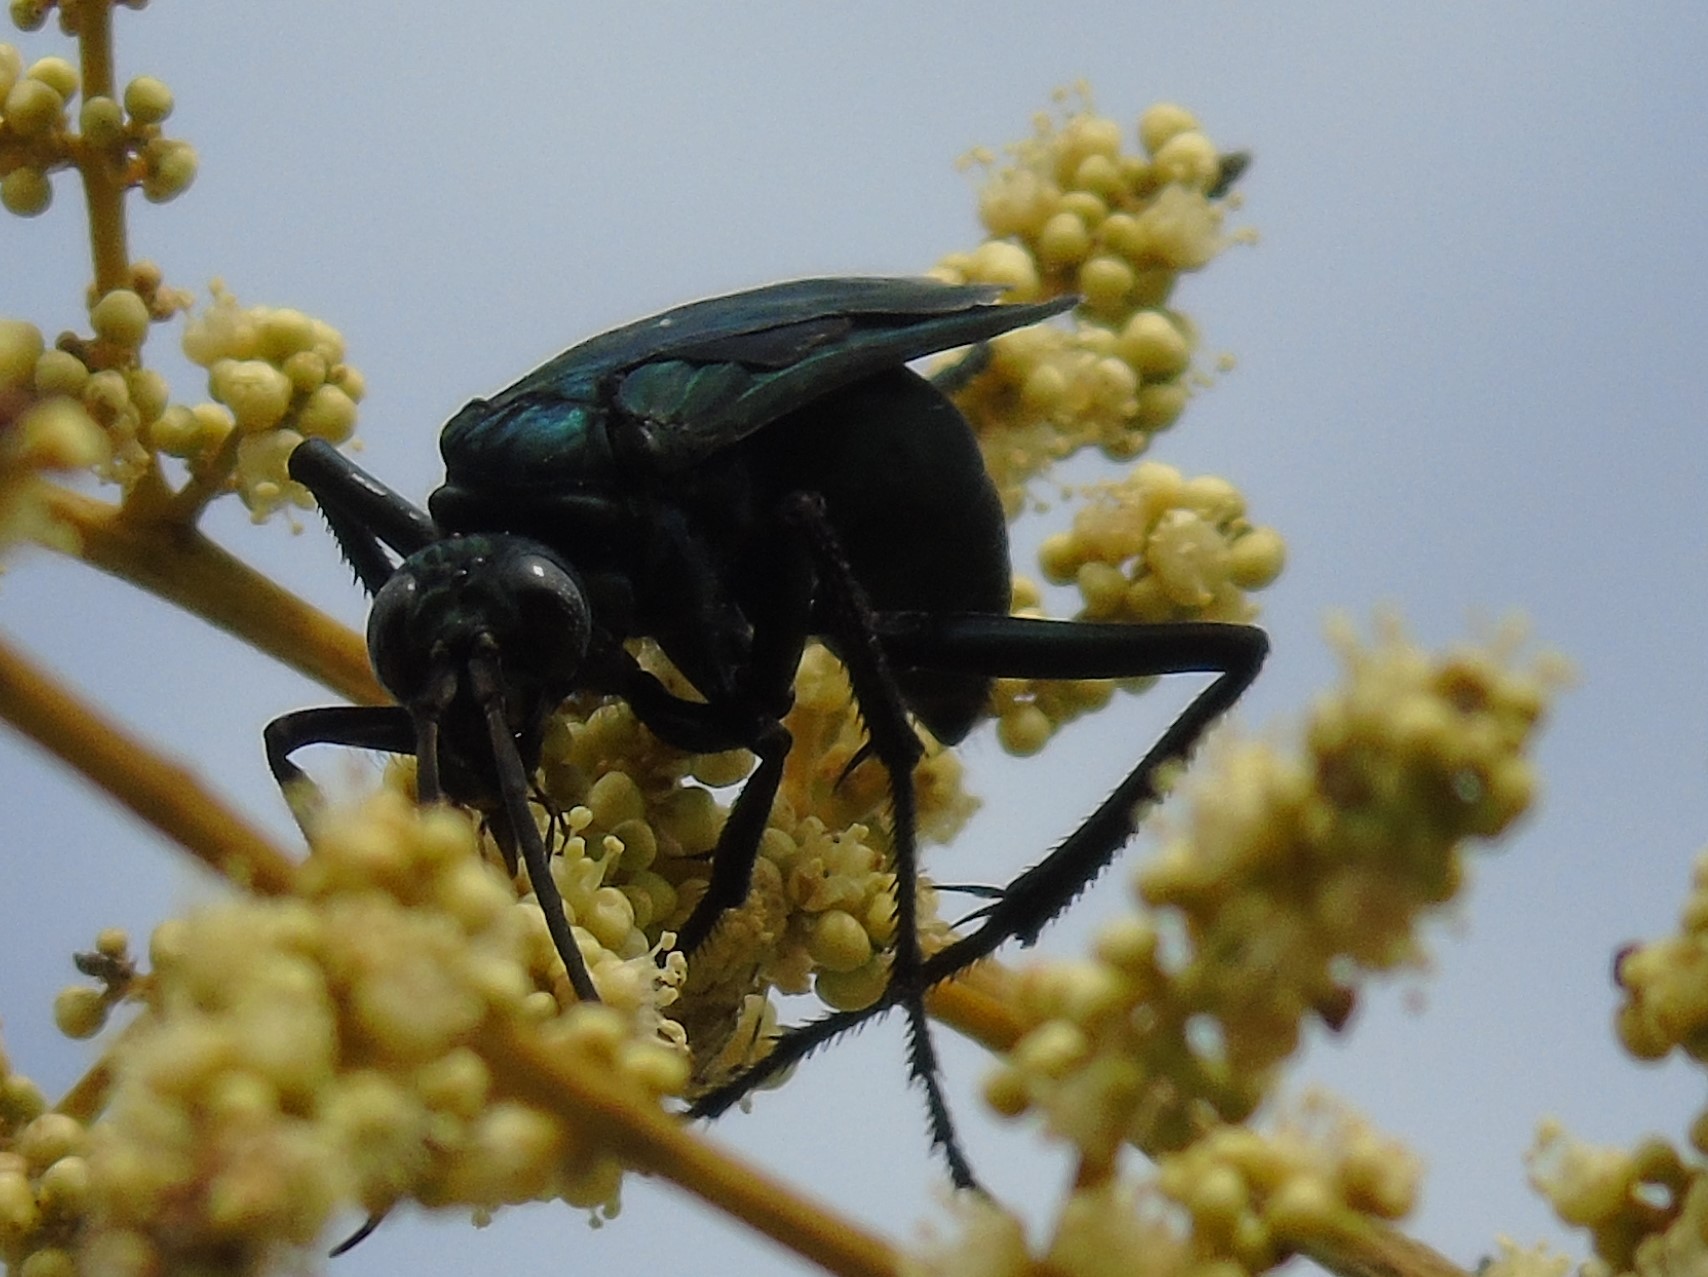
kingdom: Animalia
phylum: Arthropoda
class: Insecta
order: Hymenoptera
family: Pompilidae
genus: Pepsis
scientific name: Pepsis mexicana
